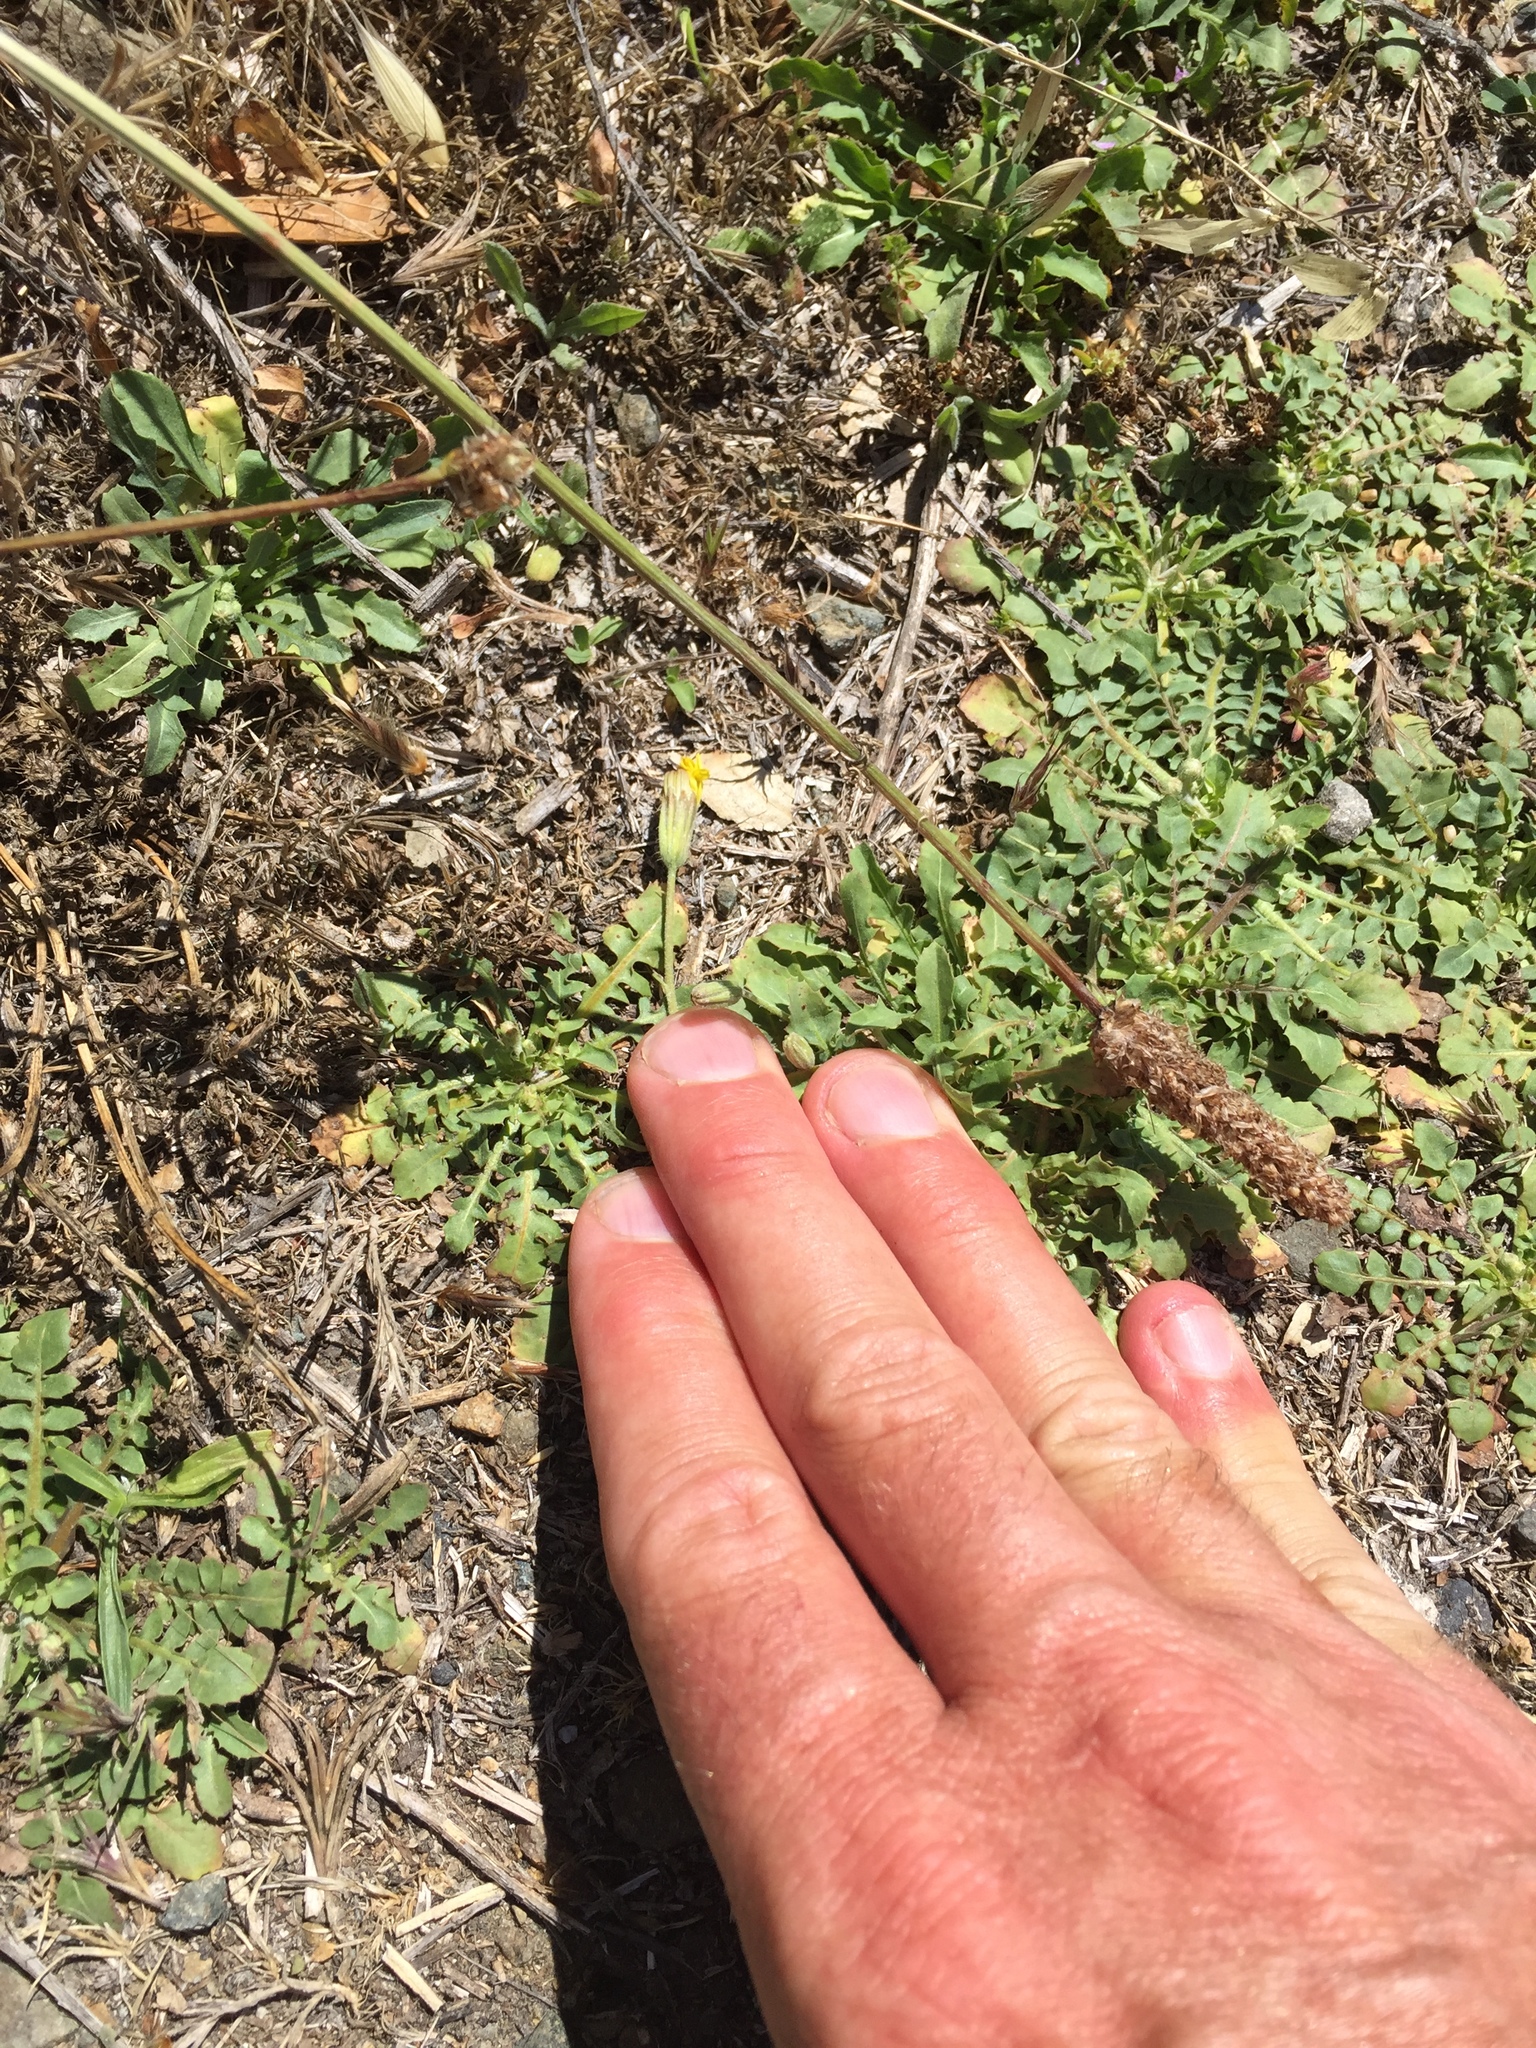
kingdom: Plantae
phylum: Tracheophyta
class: Magnoliopsida
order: Asterales
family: Asteraceae
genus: Crepis
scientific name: Crepis bursifolia
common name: Italian hawksbeard
